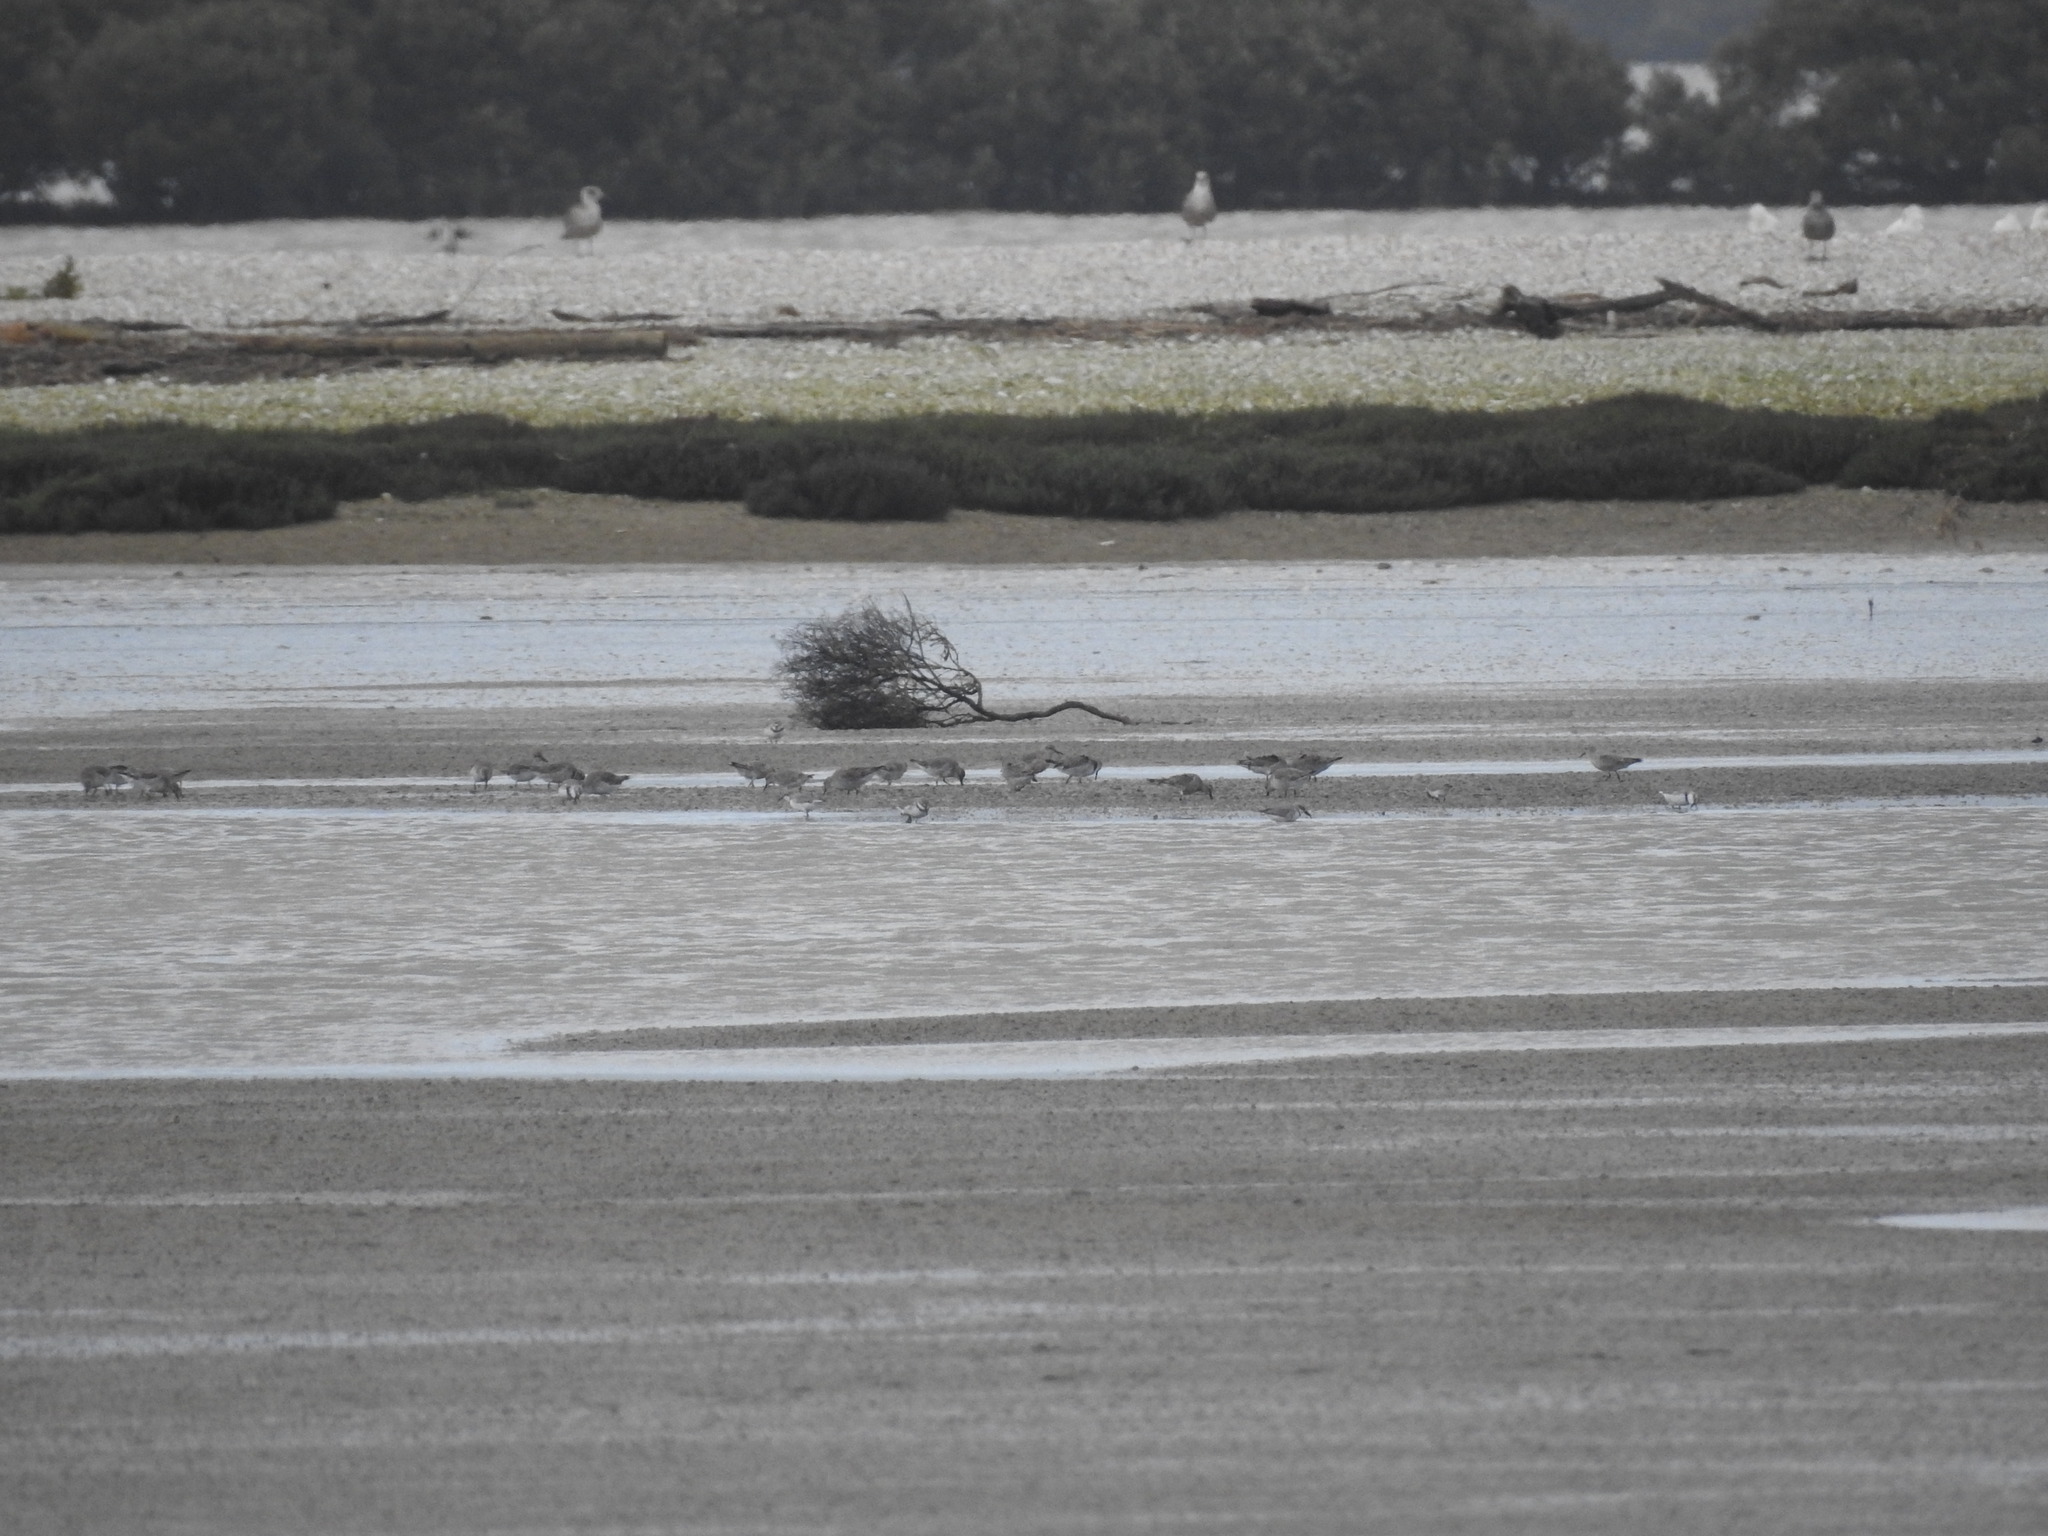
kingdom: Animalia
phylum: Chordata
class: Aves
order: Charadriiformes
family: Scolopacidae
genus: Calidris
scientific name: Calidris canutus
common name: Red knot
